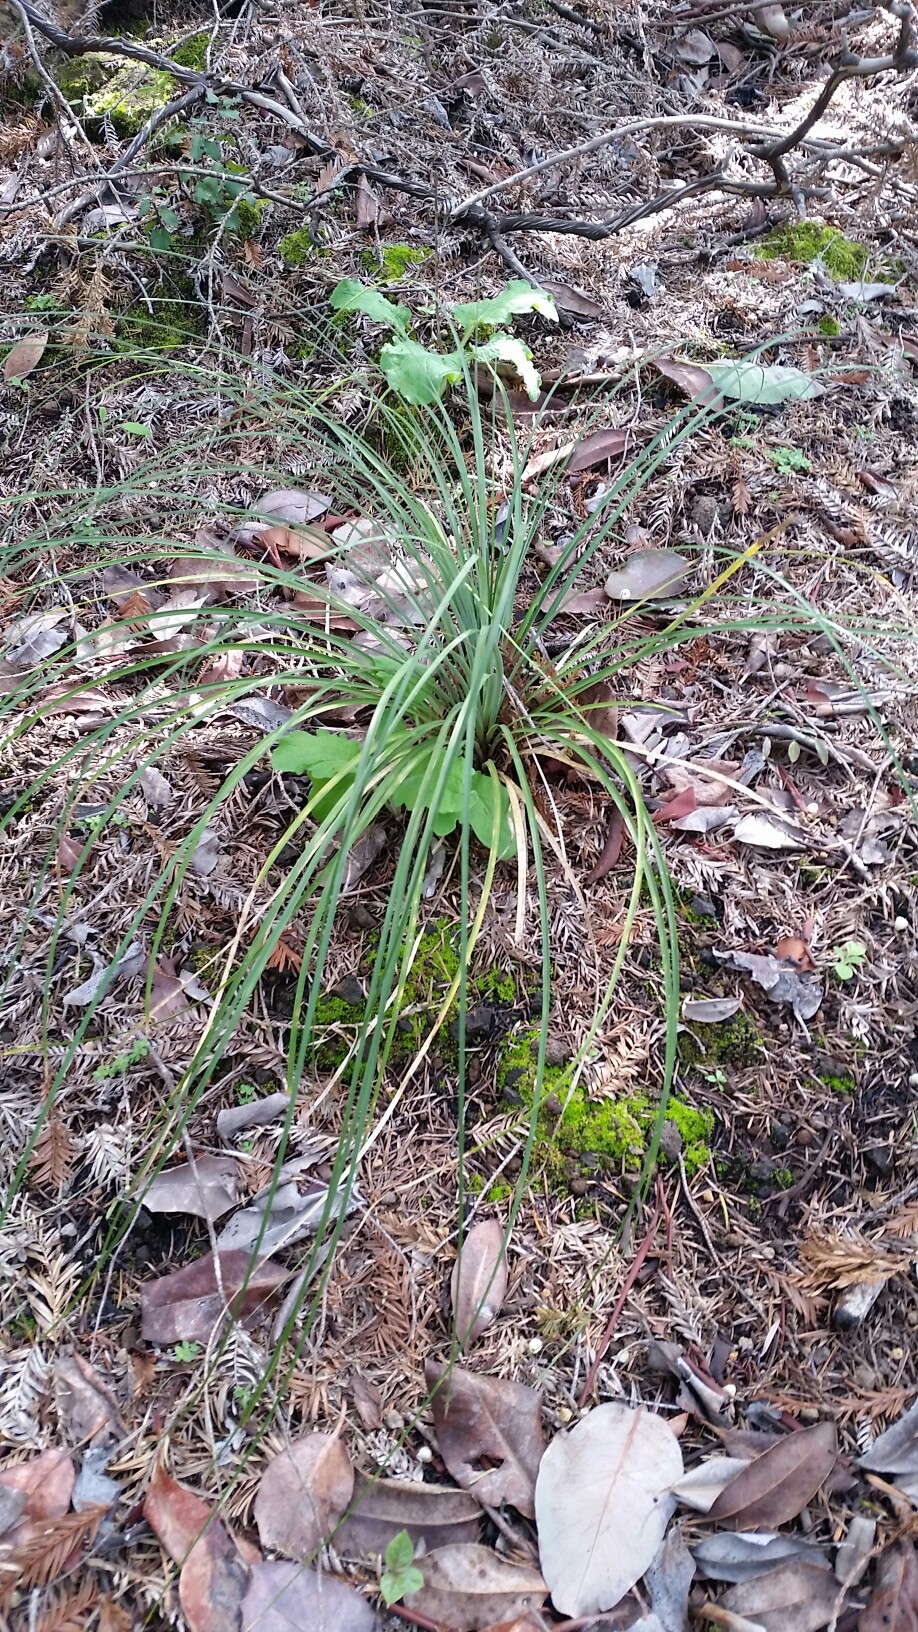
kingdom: Plantae
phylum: Tracheophyta
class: Liliopsida
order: Liliales
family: Melanthiaceae
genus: Xerophyllum
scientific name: Xerophyllum tenax
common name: Bear-grass
